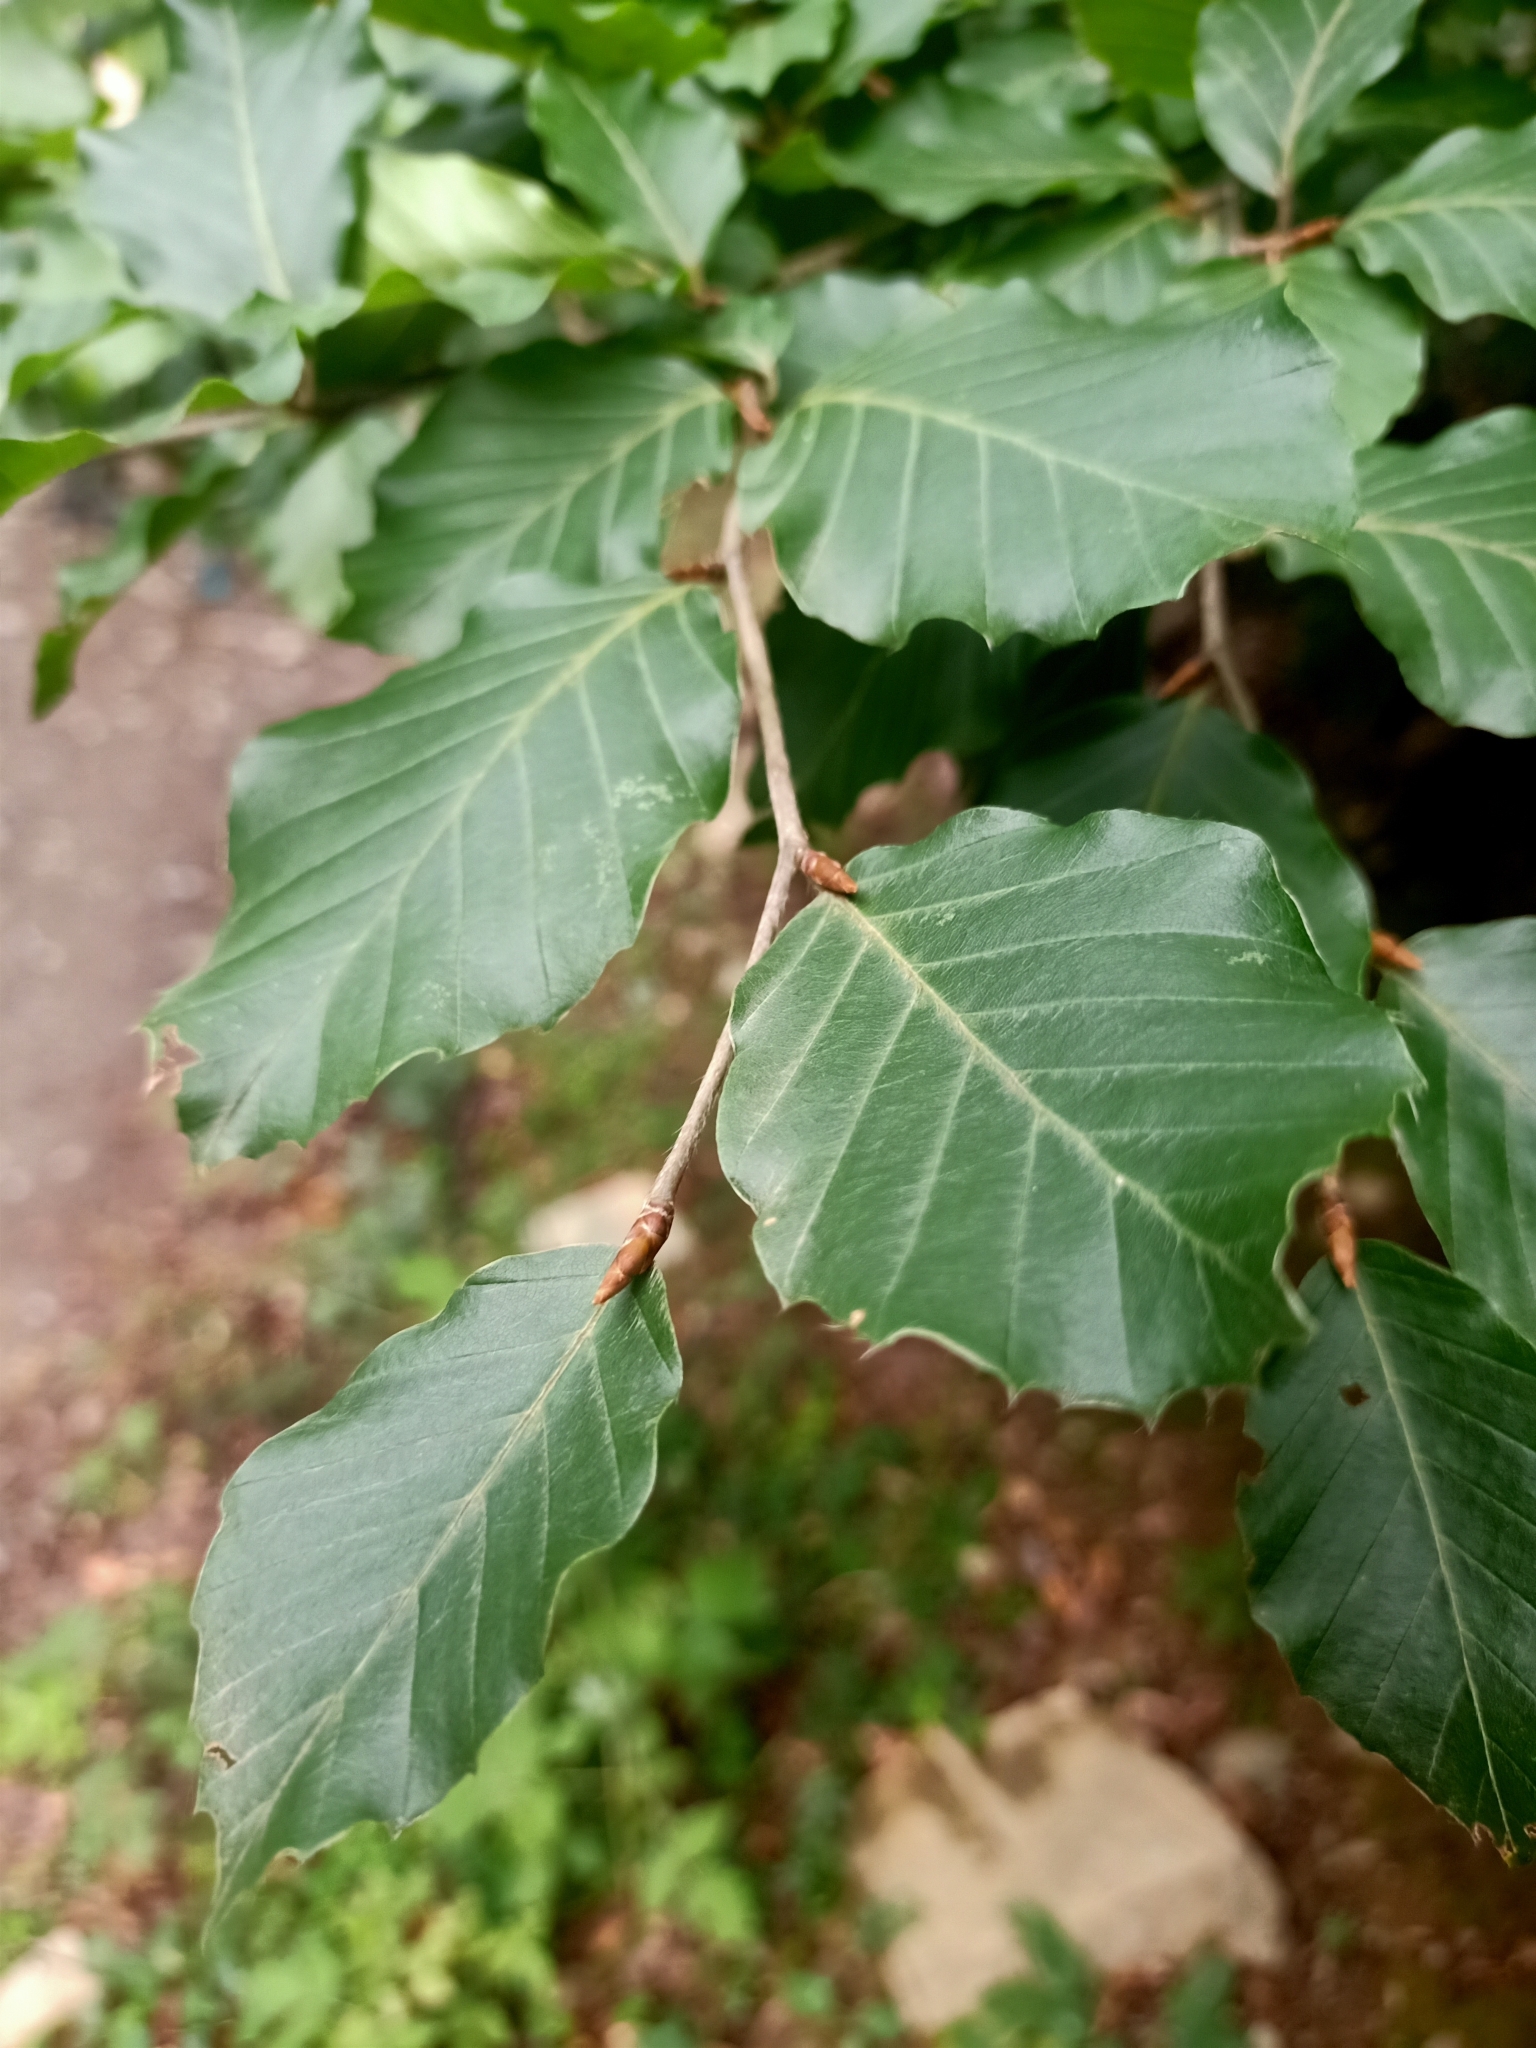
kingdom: Plantae
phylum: Tracheophyta
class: Magnoliopsida
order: Fagales
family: Fagaceae
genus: Fagus
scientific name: Fagus sylvatica
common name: Beech
